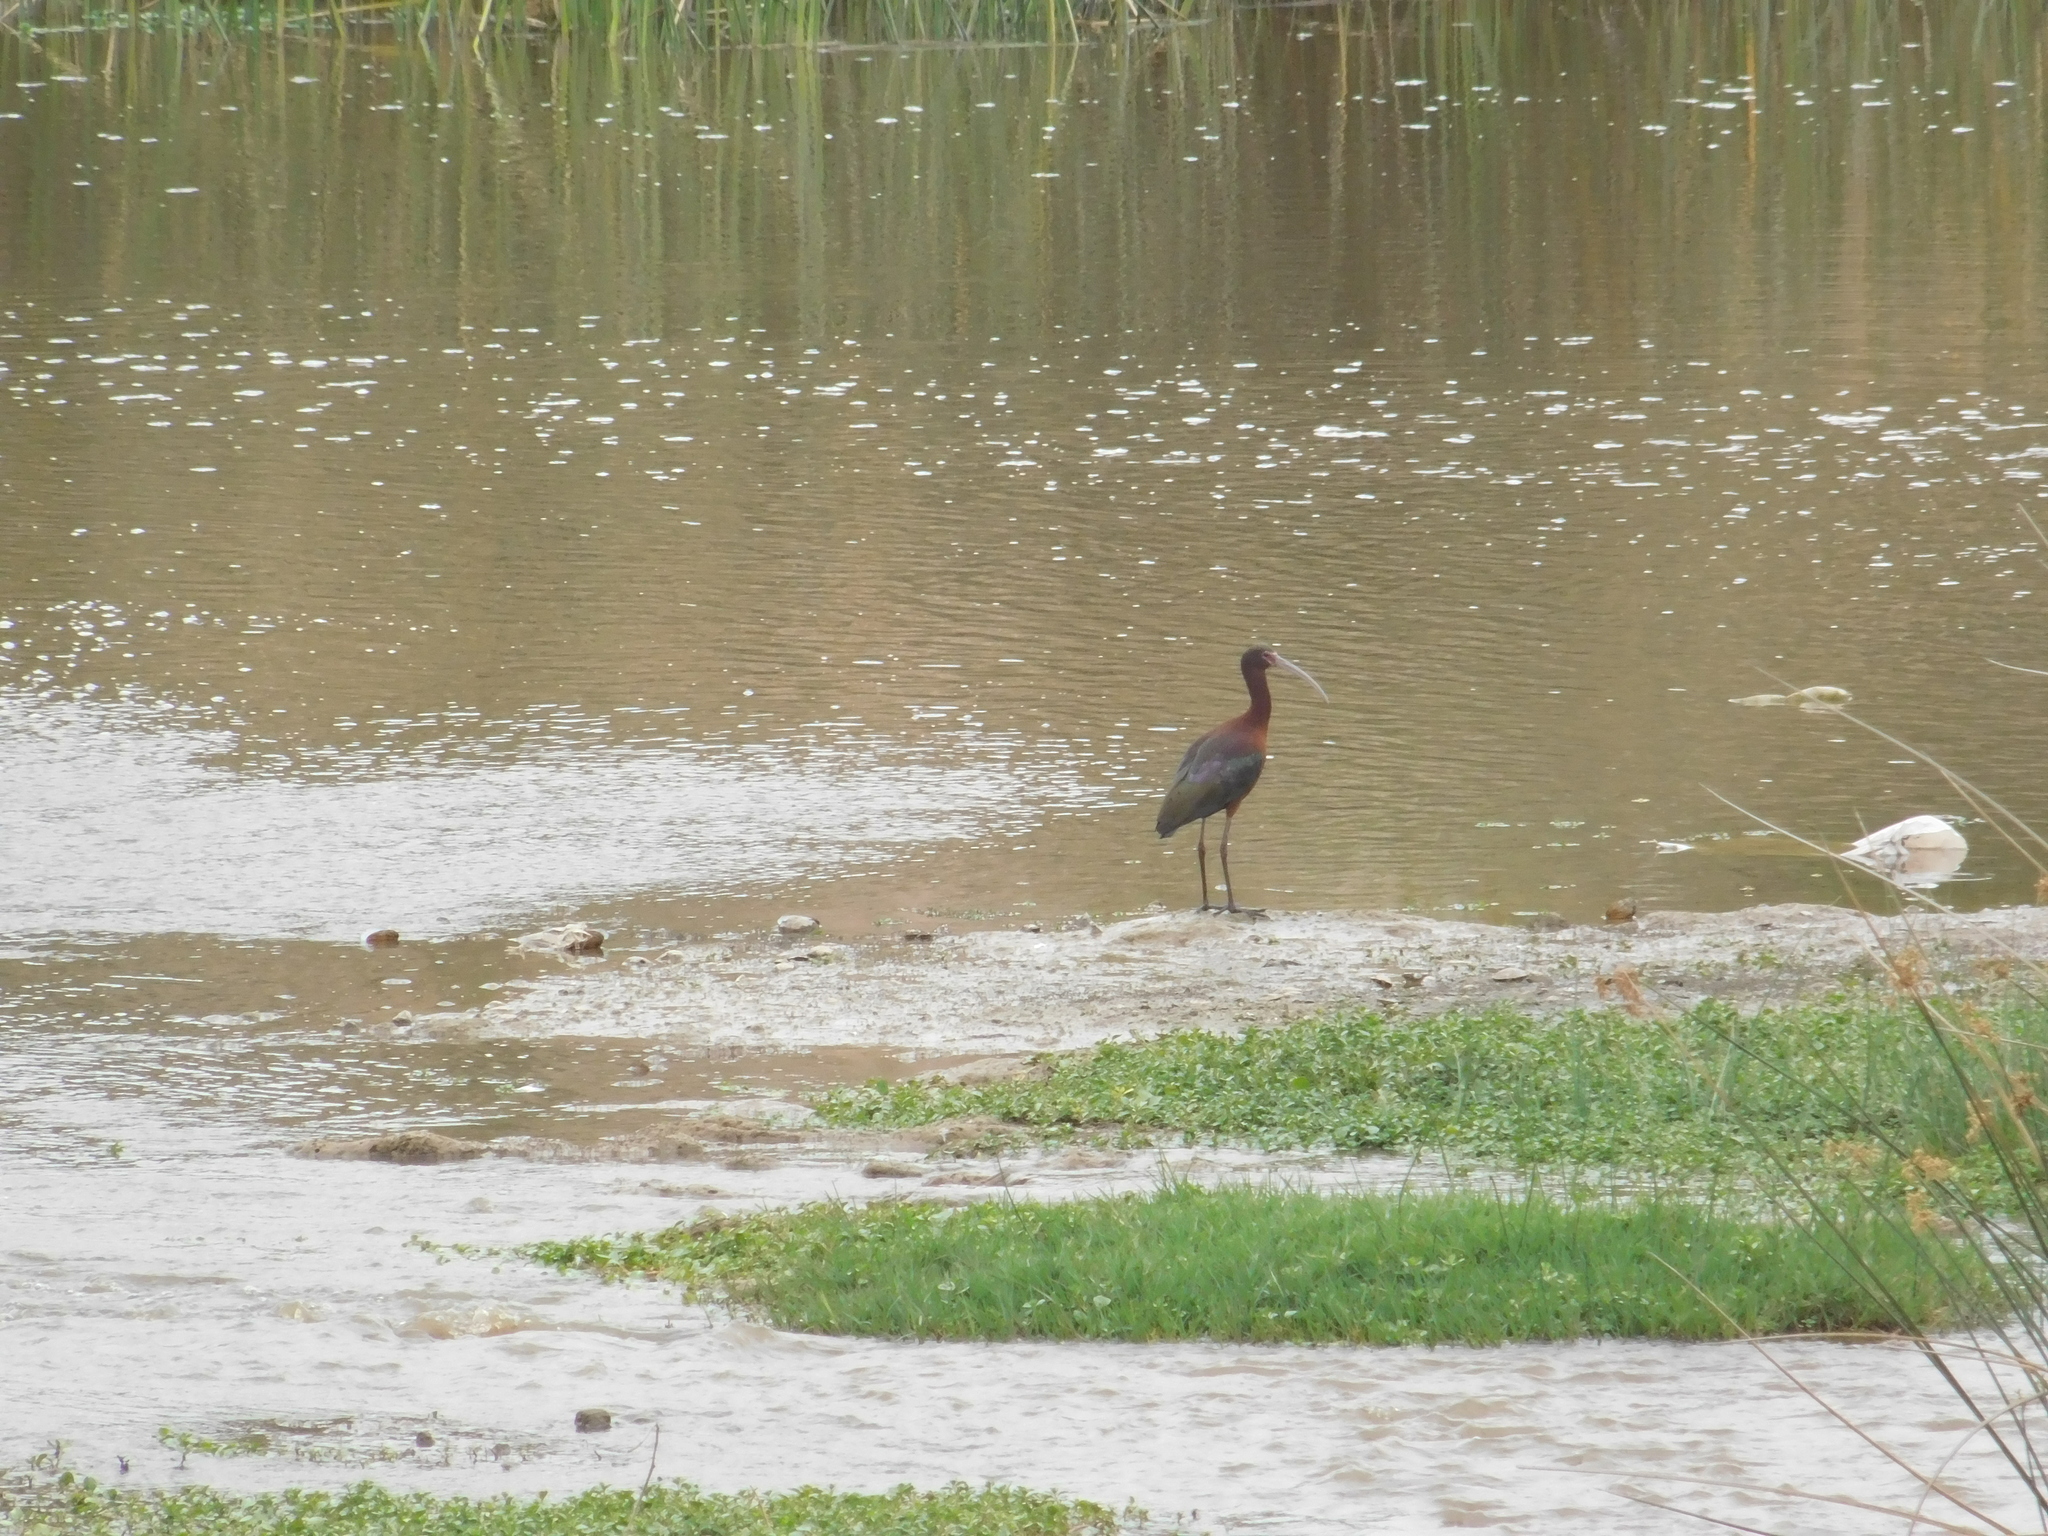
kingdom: Animalia
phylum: Chordata
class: Aves
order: Pelecaniformes
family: Threskiornithidae
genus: Plegadis
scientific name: Plegadis chihi
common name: White-faced ibis
